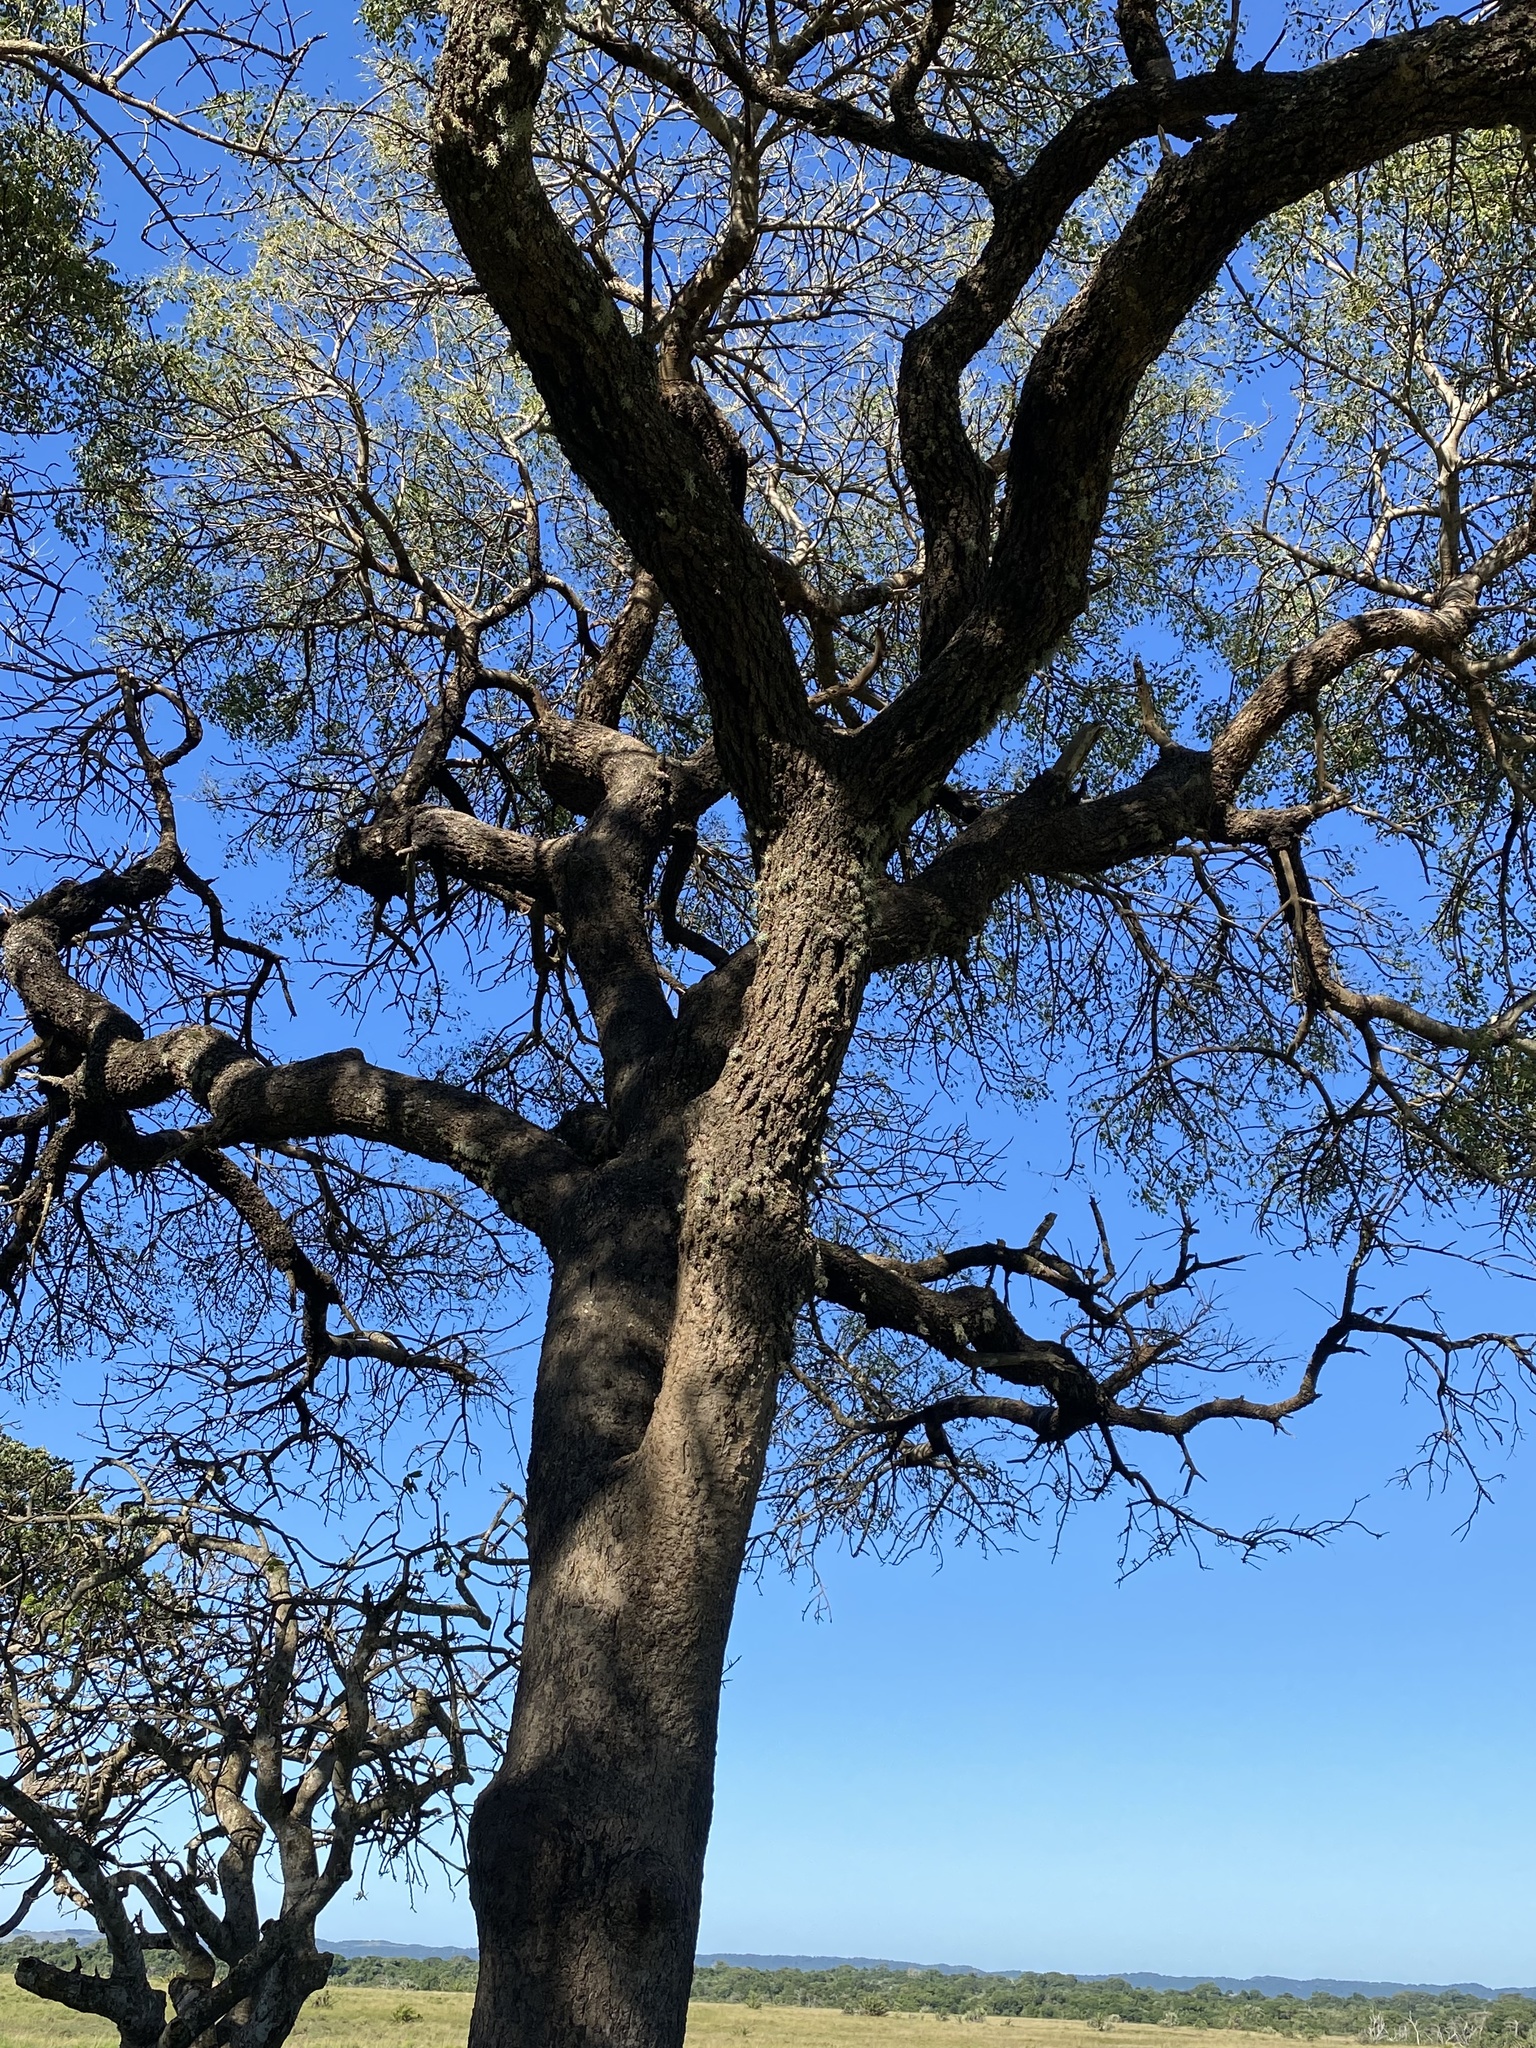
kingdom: Plantae
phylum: Tracheophyta
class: Magnoliopsida
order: Sapindales
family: Anacardiaceae
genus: Sclerocarya
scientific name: Sclerocarya birrea
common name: Marula
